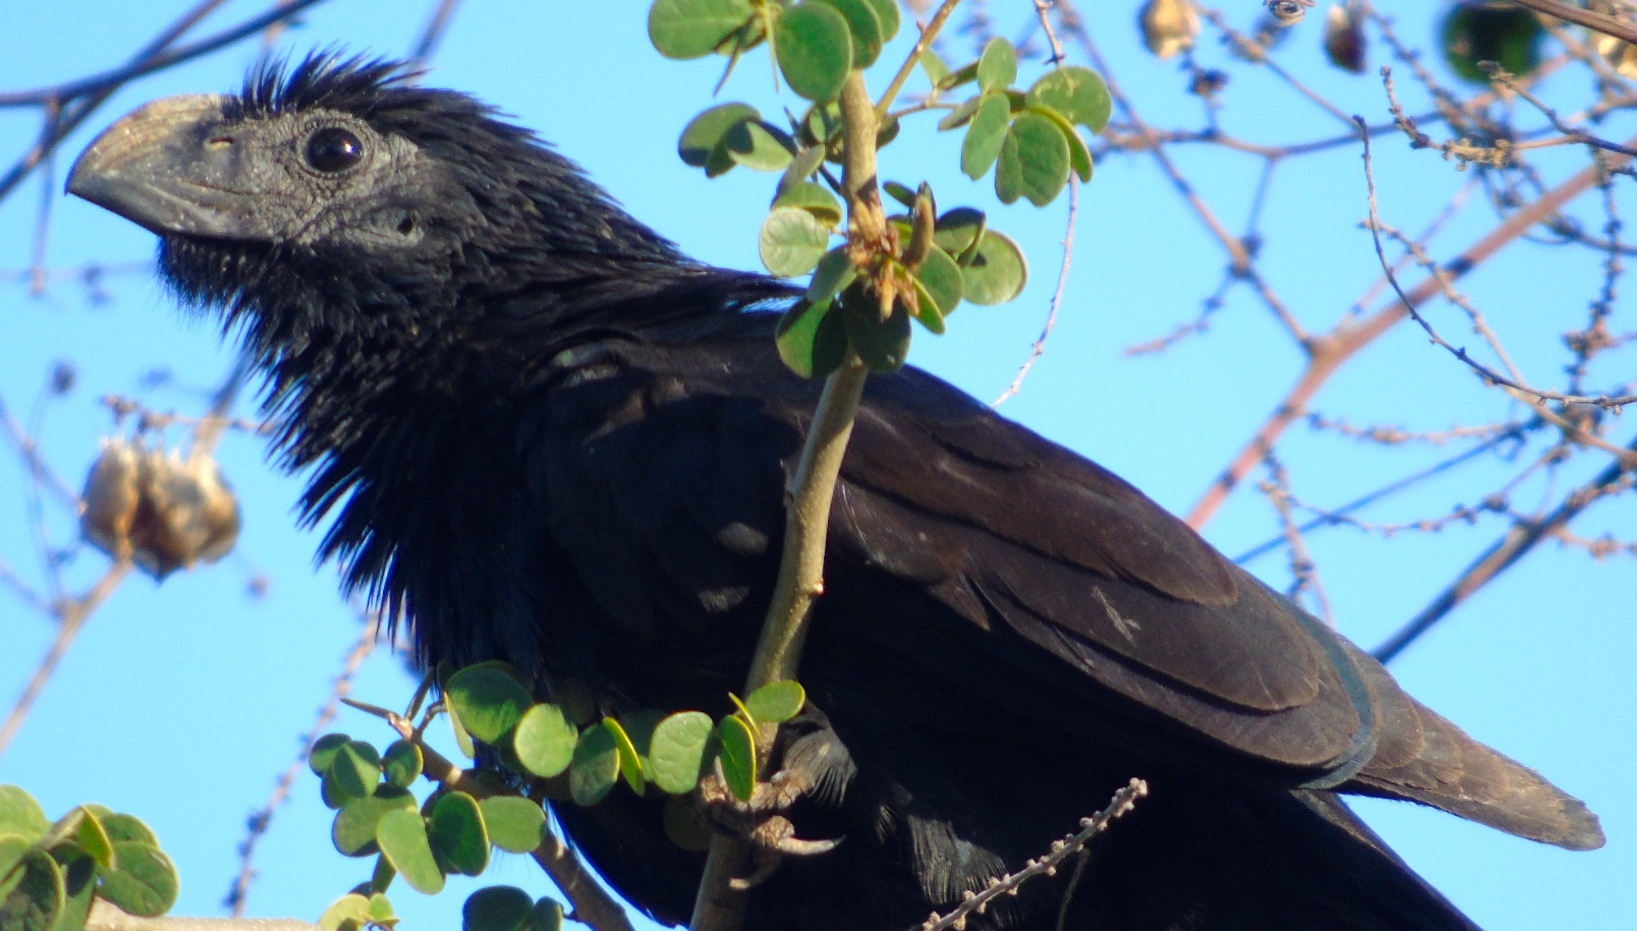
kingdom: Animalia
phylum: Chordata
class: Aves
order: Cuculiformes
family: Cuculidae
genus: Crotophaga
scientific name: Crotophaga sulcirostris
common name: Groove-billed ani
